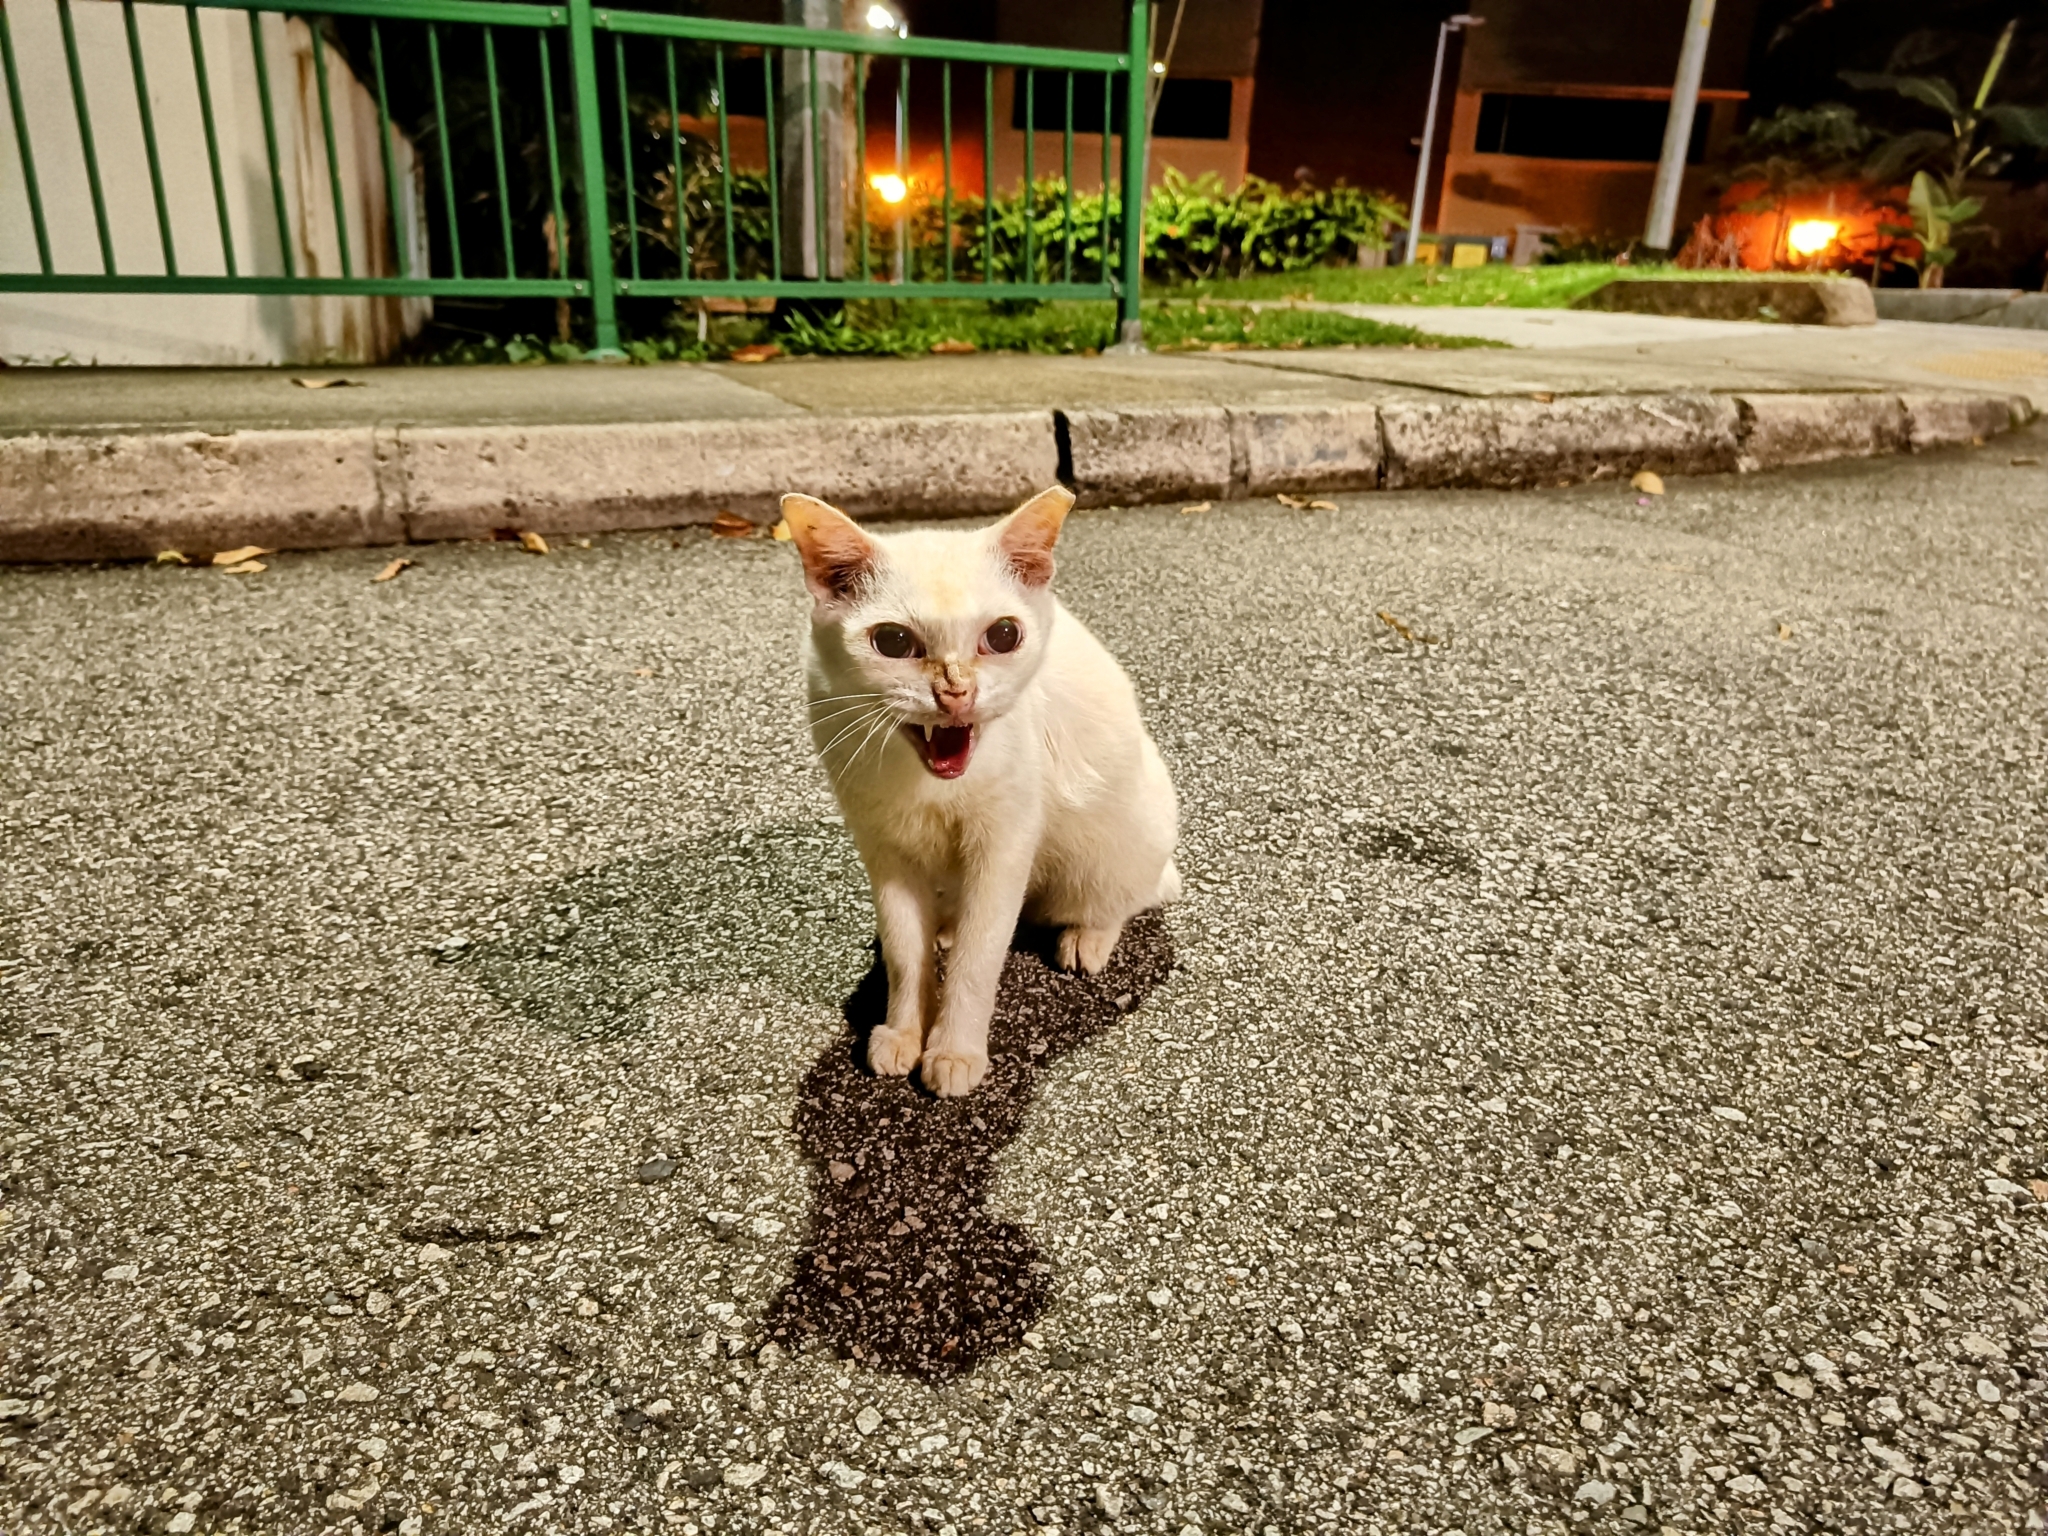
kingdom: Animalia
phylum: Chordata
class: Mammalia
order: Carnivora
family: Felidae
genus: Felis
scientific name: Felis catus
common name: Domestic cat
